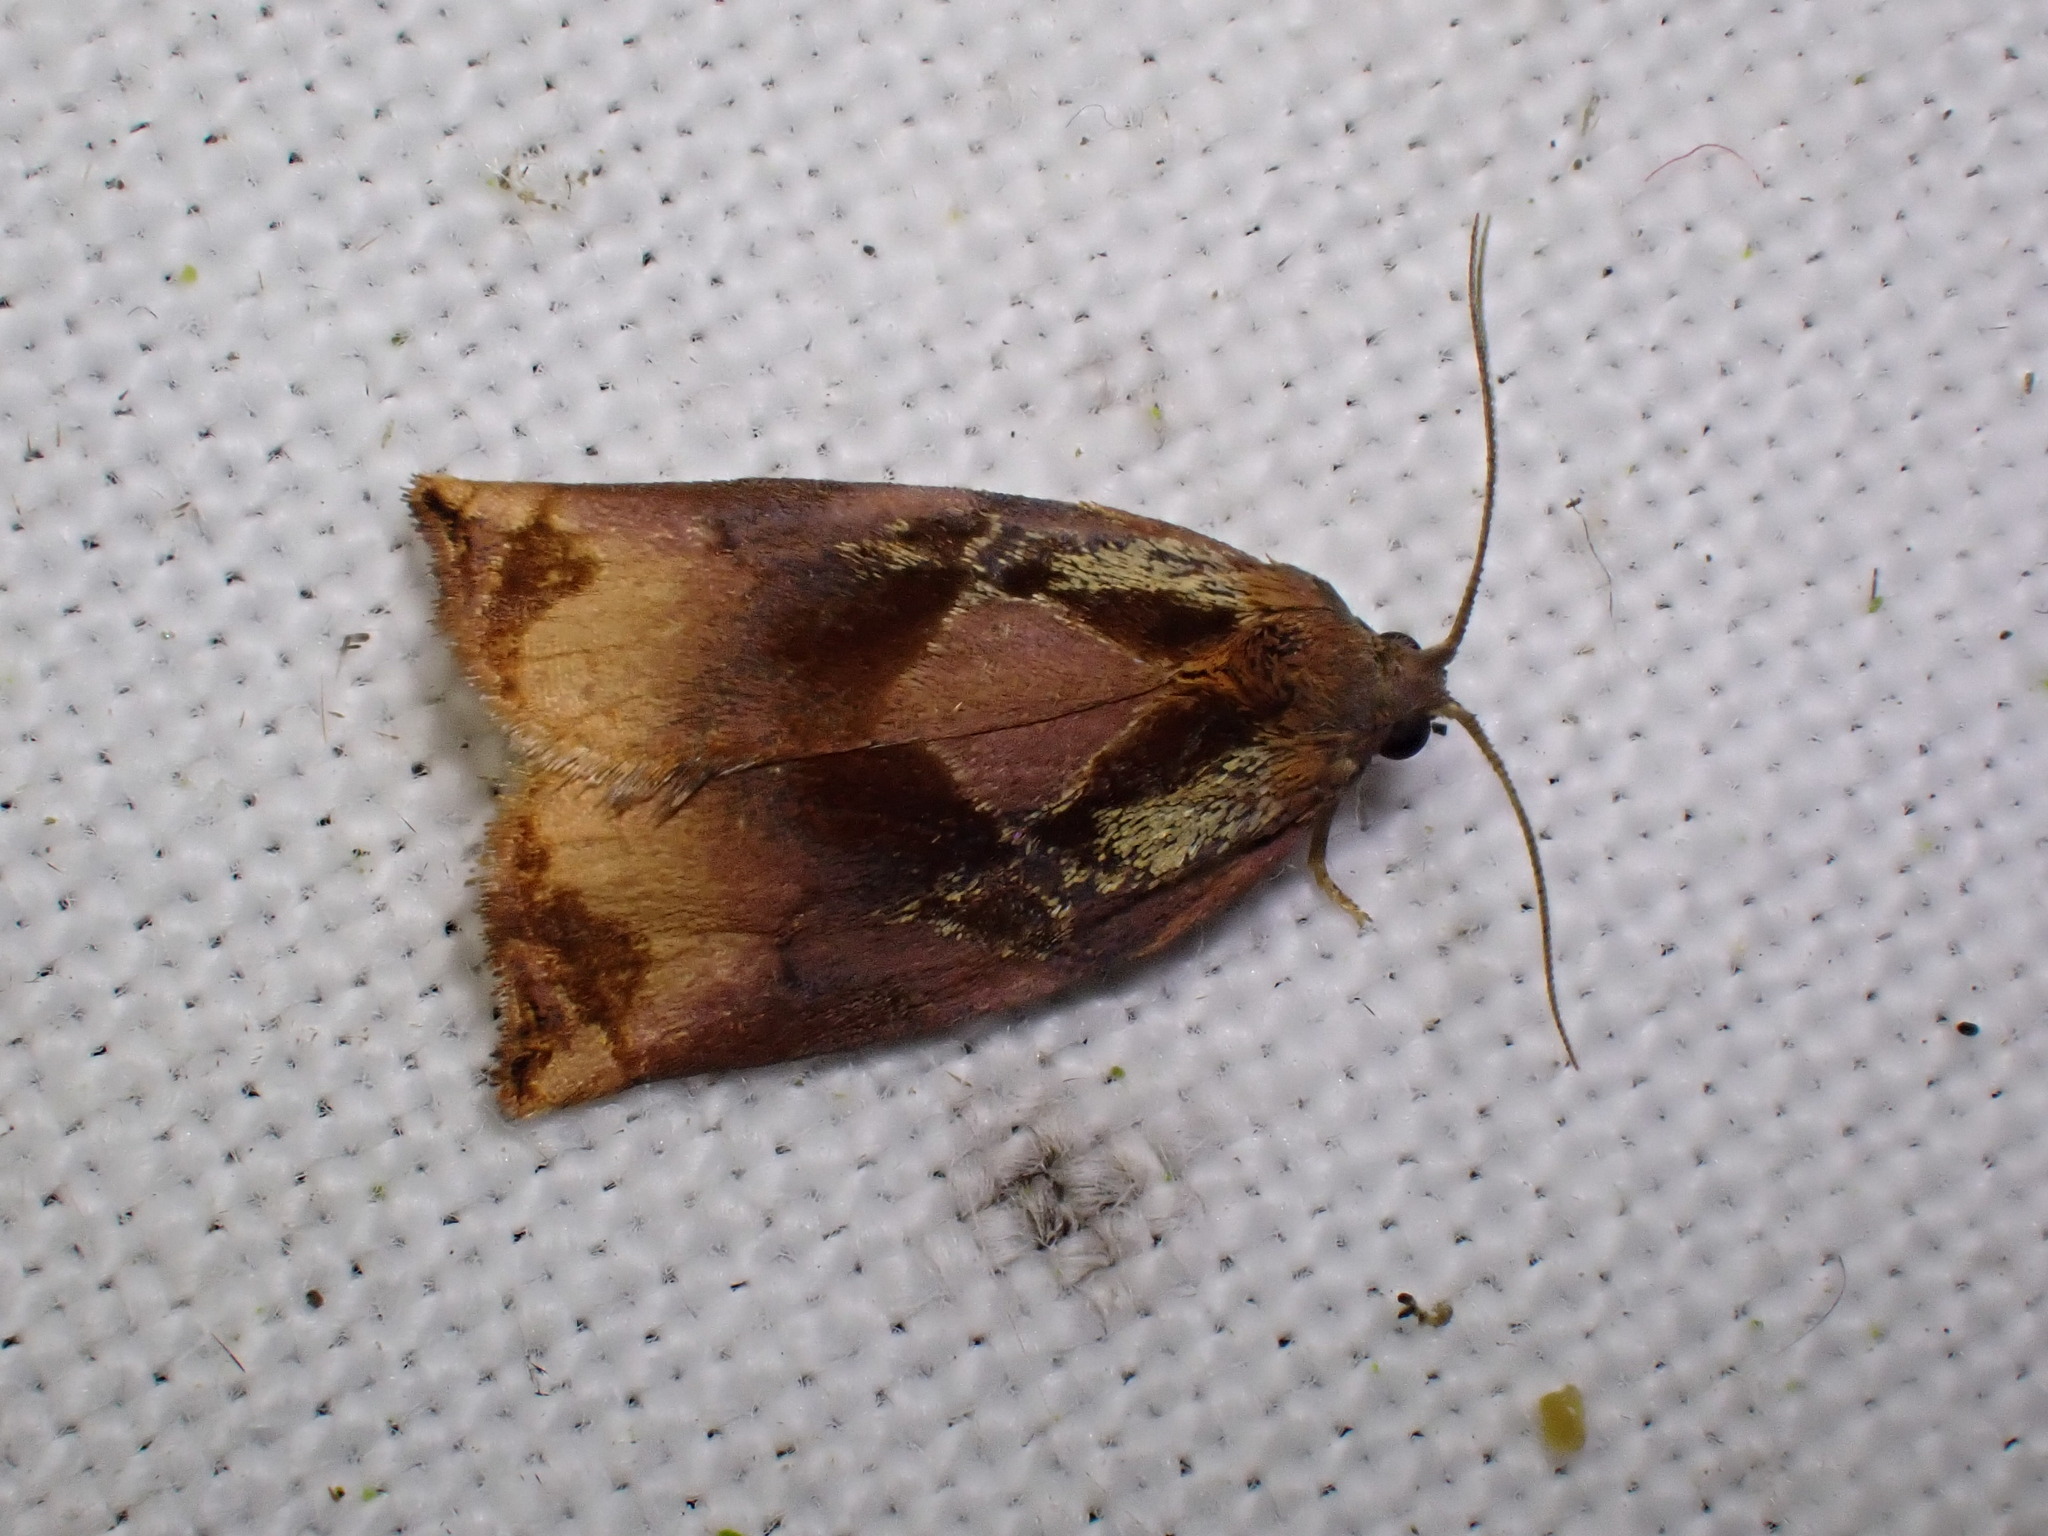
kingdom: Animalia
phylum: Arthropoda
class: Insecta
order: Lepidoptera
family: Tortricidae
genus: Archips
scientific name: Archips podana
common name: Large fruit-tree tortrix
